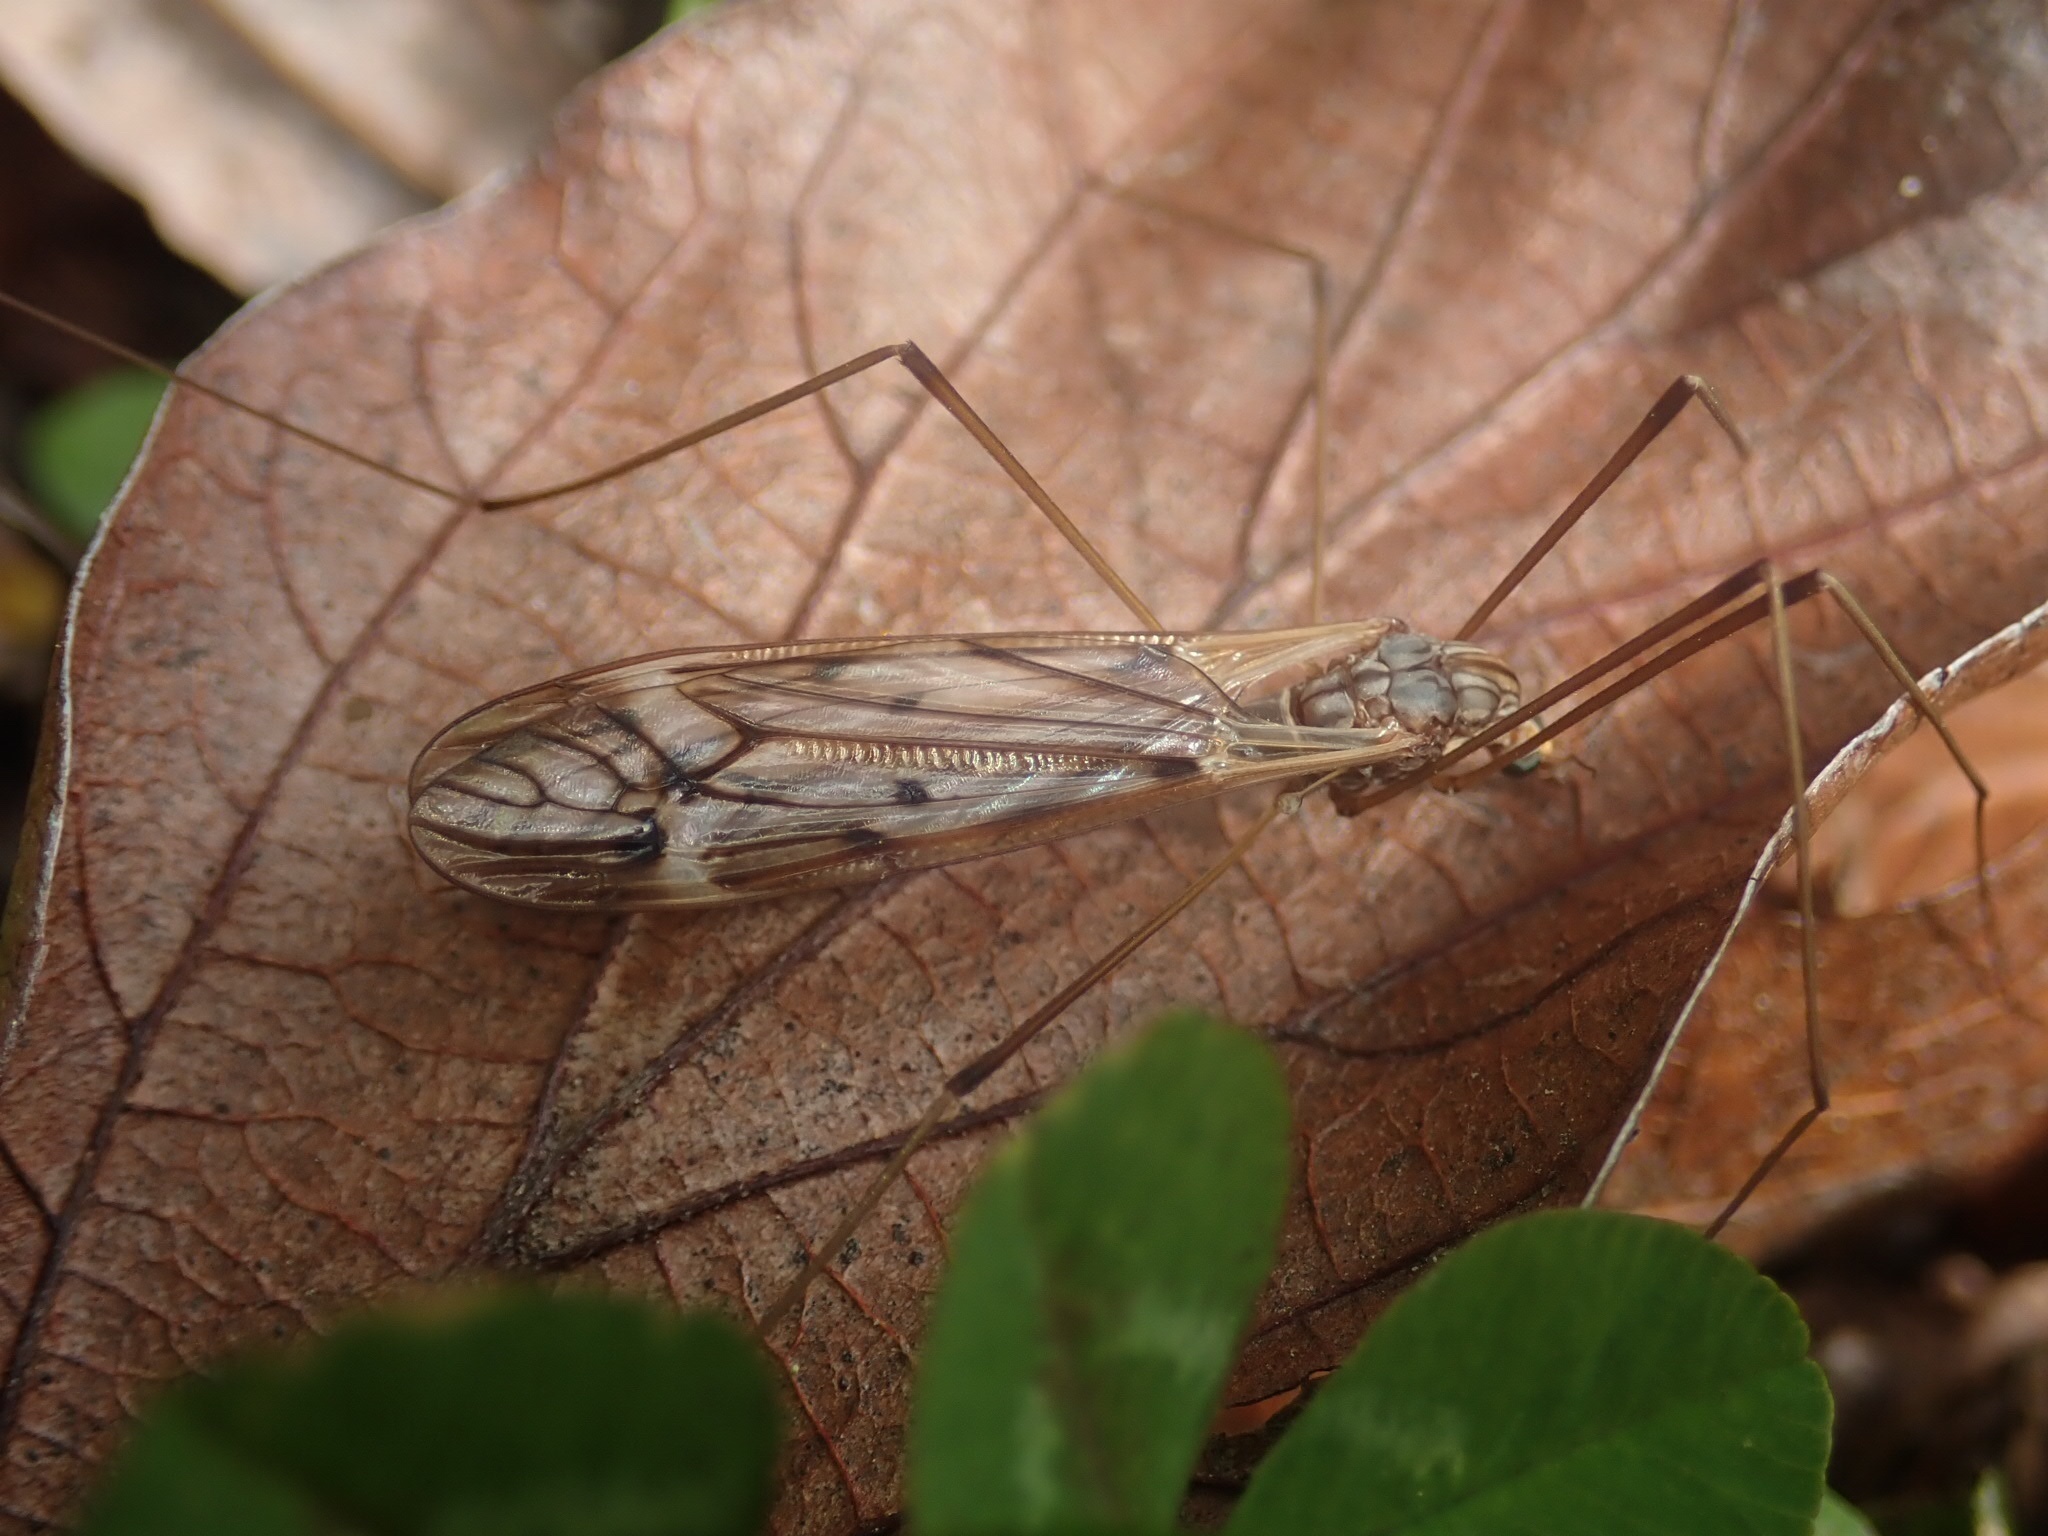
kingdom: Animalia
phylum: Arthropoda
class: Insecta
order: Diptera
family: Tipulidae
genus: Zelandotipula
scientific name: Zelandotipula novarae
